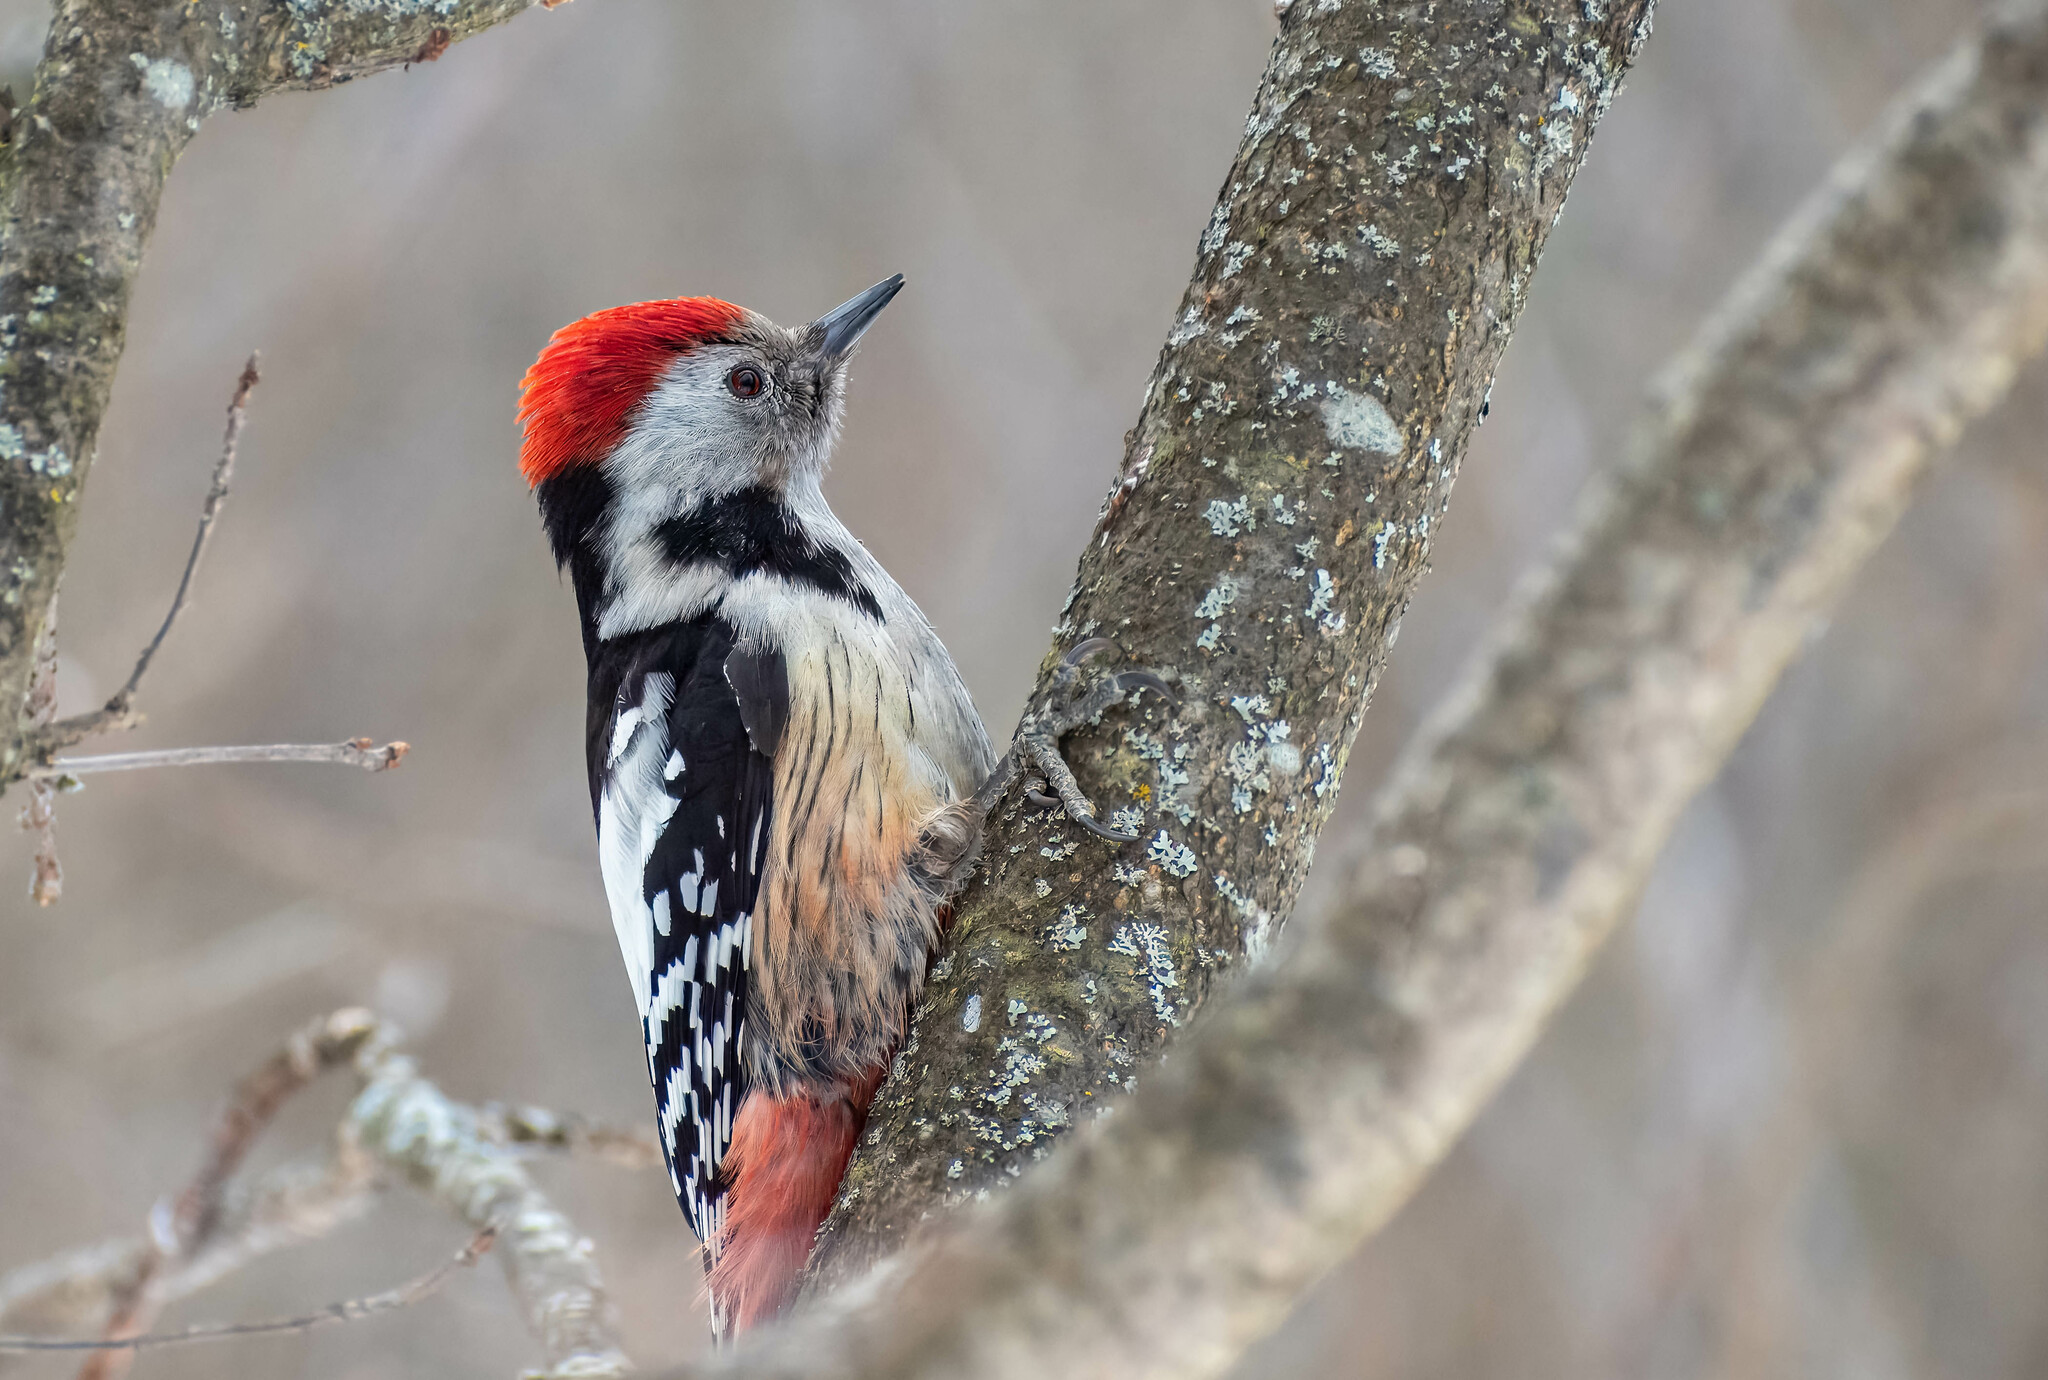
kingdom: Animalia
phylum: Chordata
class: Aves
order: Piciformes
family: Picidae
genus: Dendrocoptes
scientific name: Dendrocoptes medius
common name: Middle spotted woodpecker
